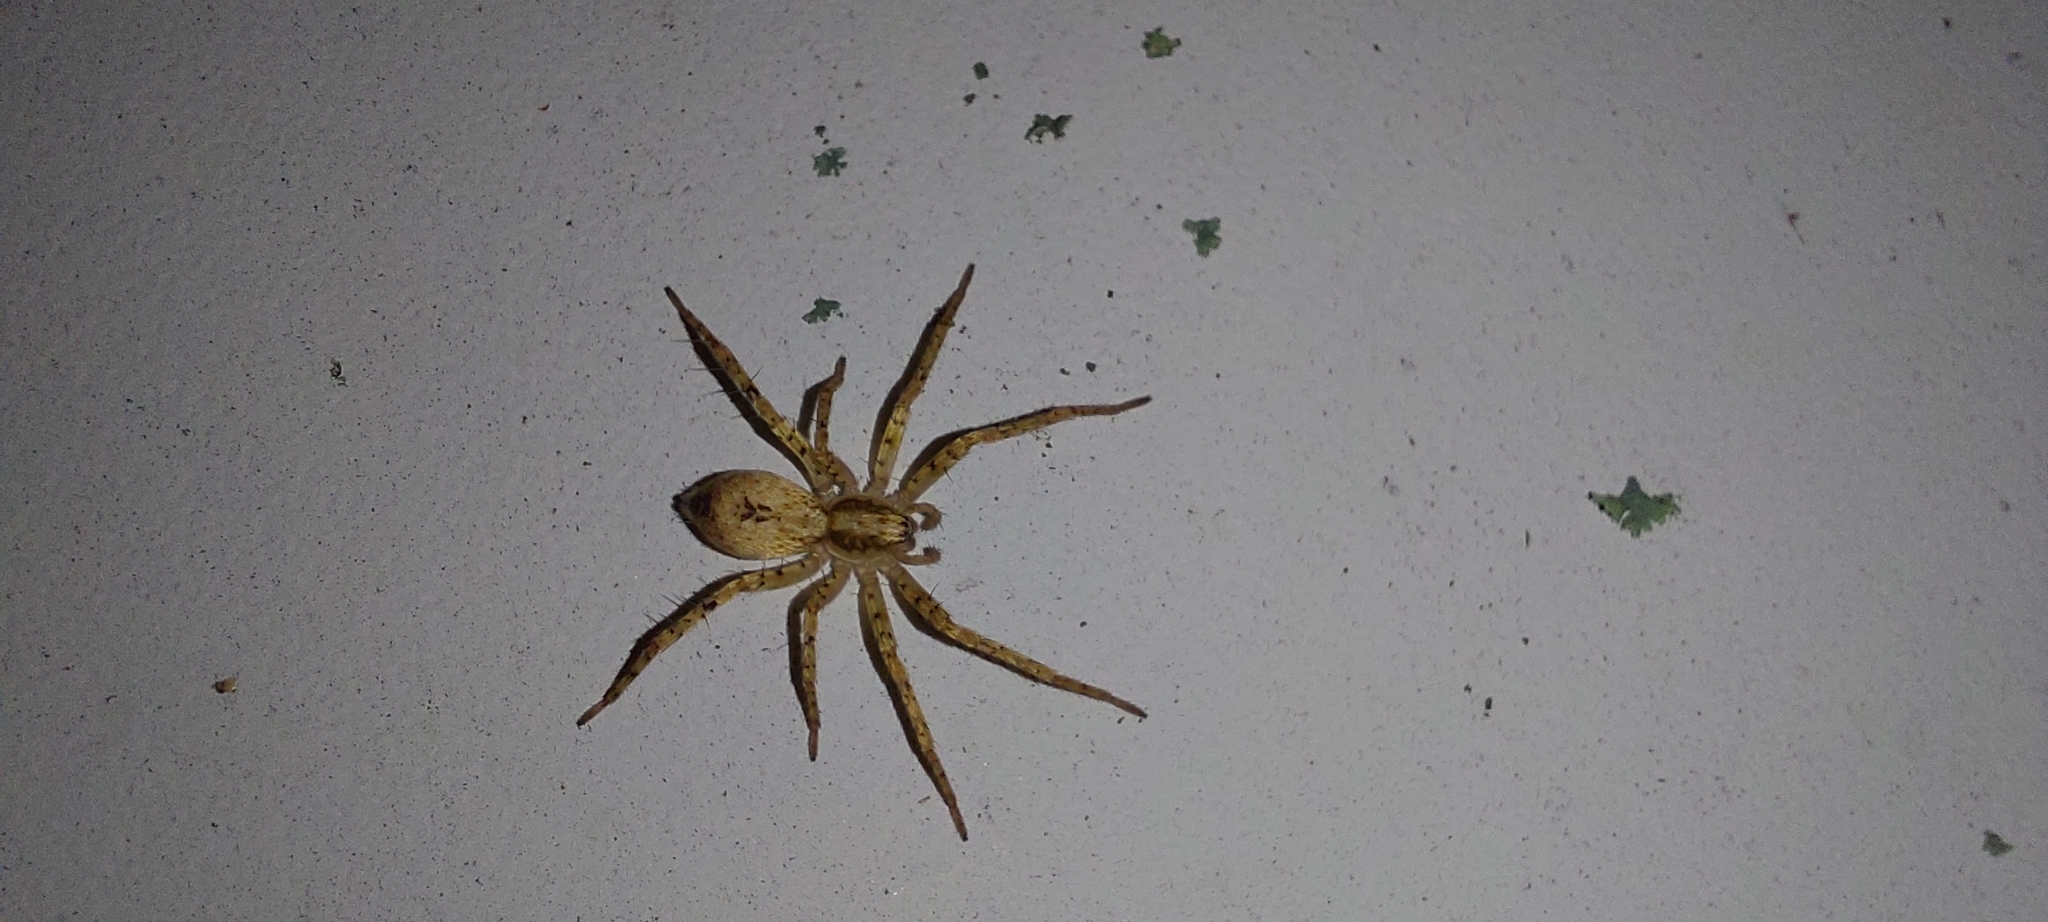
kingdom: Animalia
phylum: Arthropoda
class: Arachnida
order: Araneae
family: Anyphaenidae
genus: Anyphaena
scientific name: Anyphaena accentuata
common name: Buzzing spider
